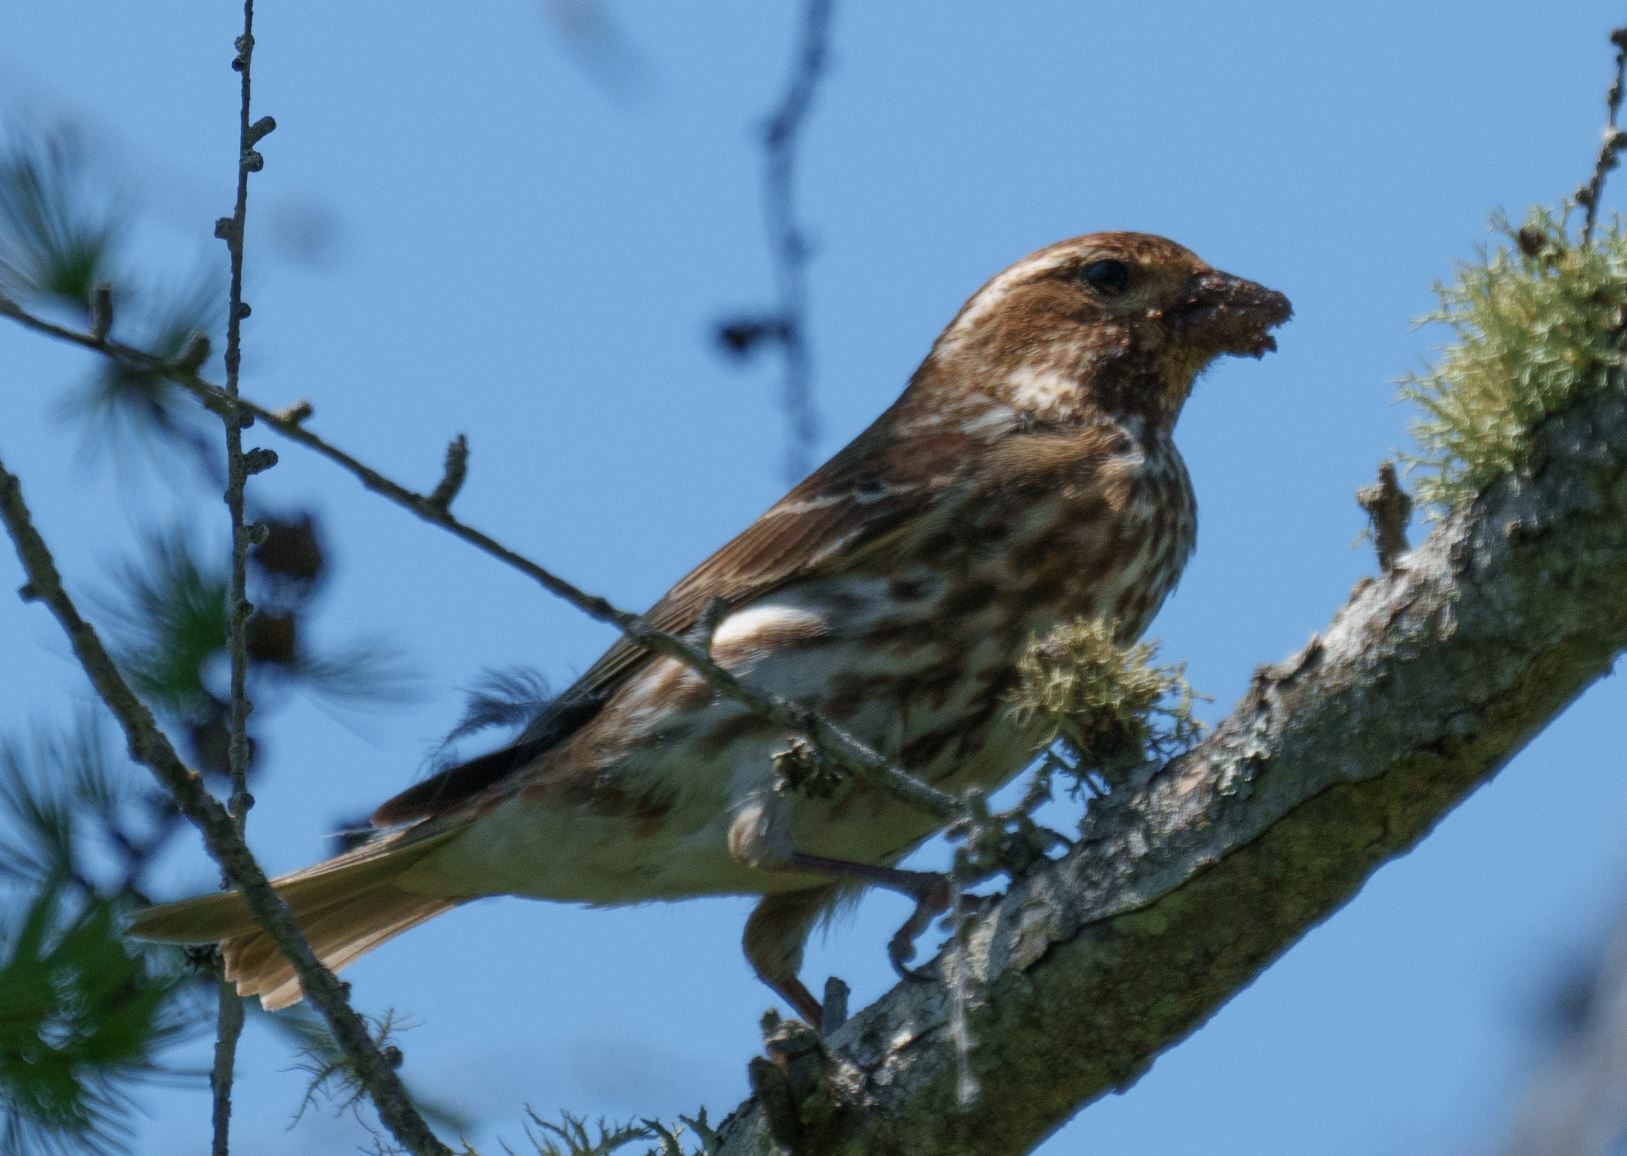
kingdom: Animalia
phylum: Chordata
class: Aves
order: Passeriformes
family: Fringillidae
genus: Haemorhous
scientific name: Haemorhous purpureus
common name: Purple finch
